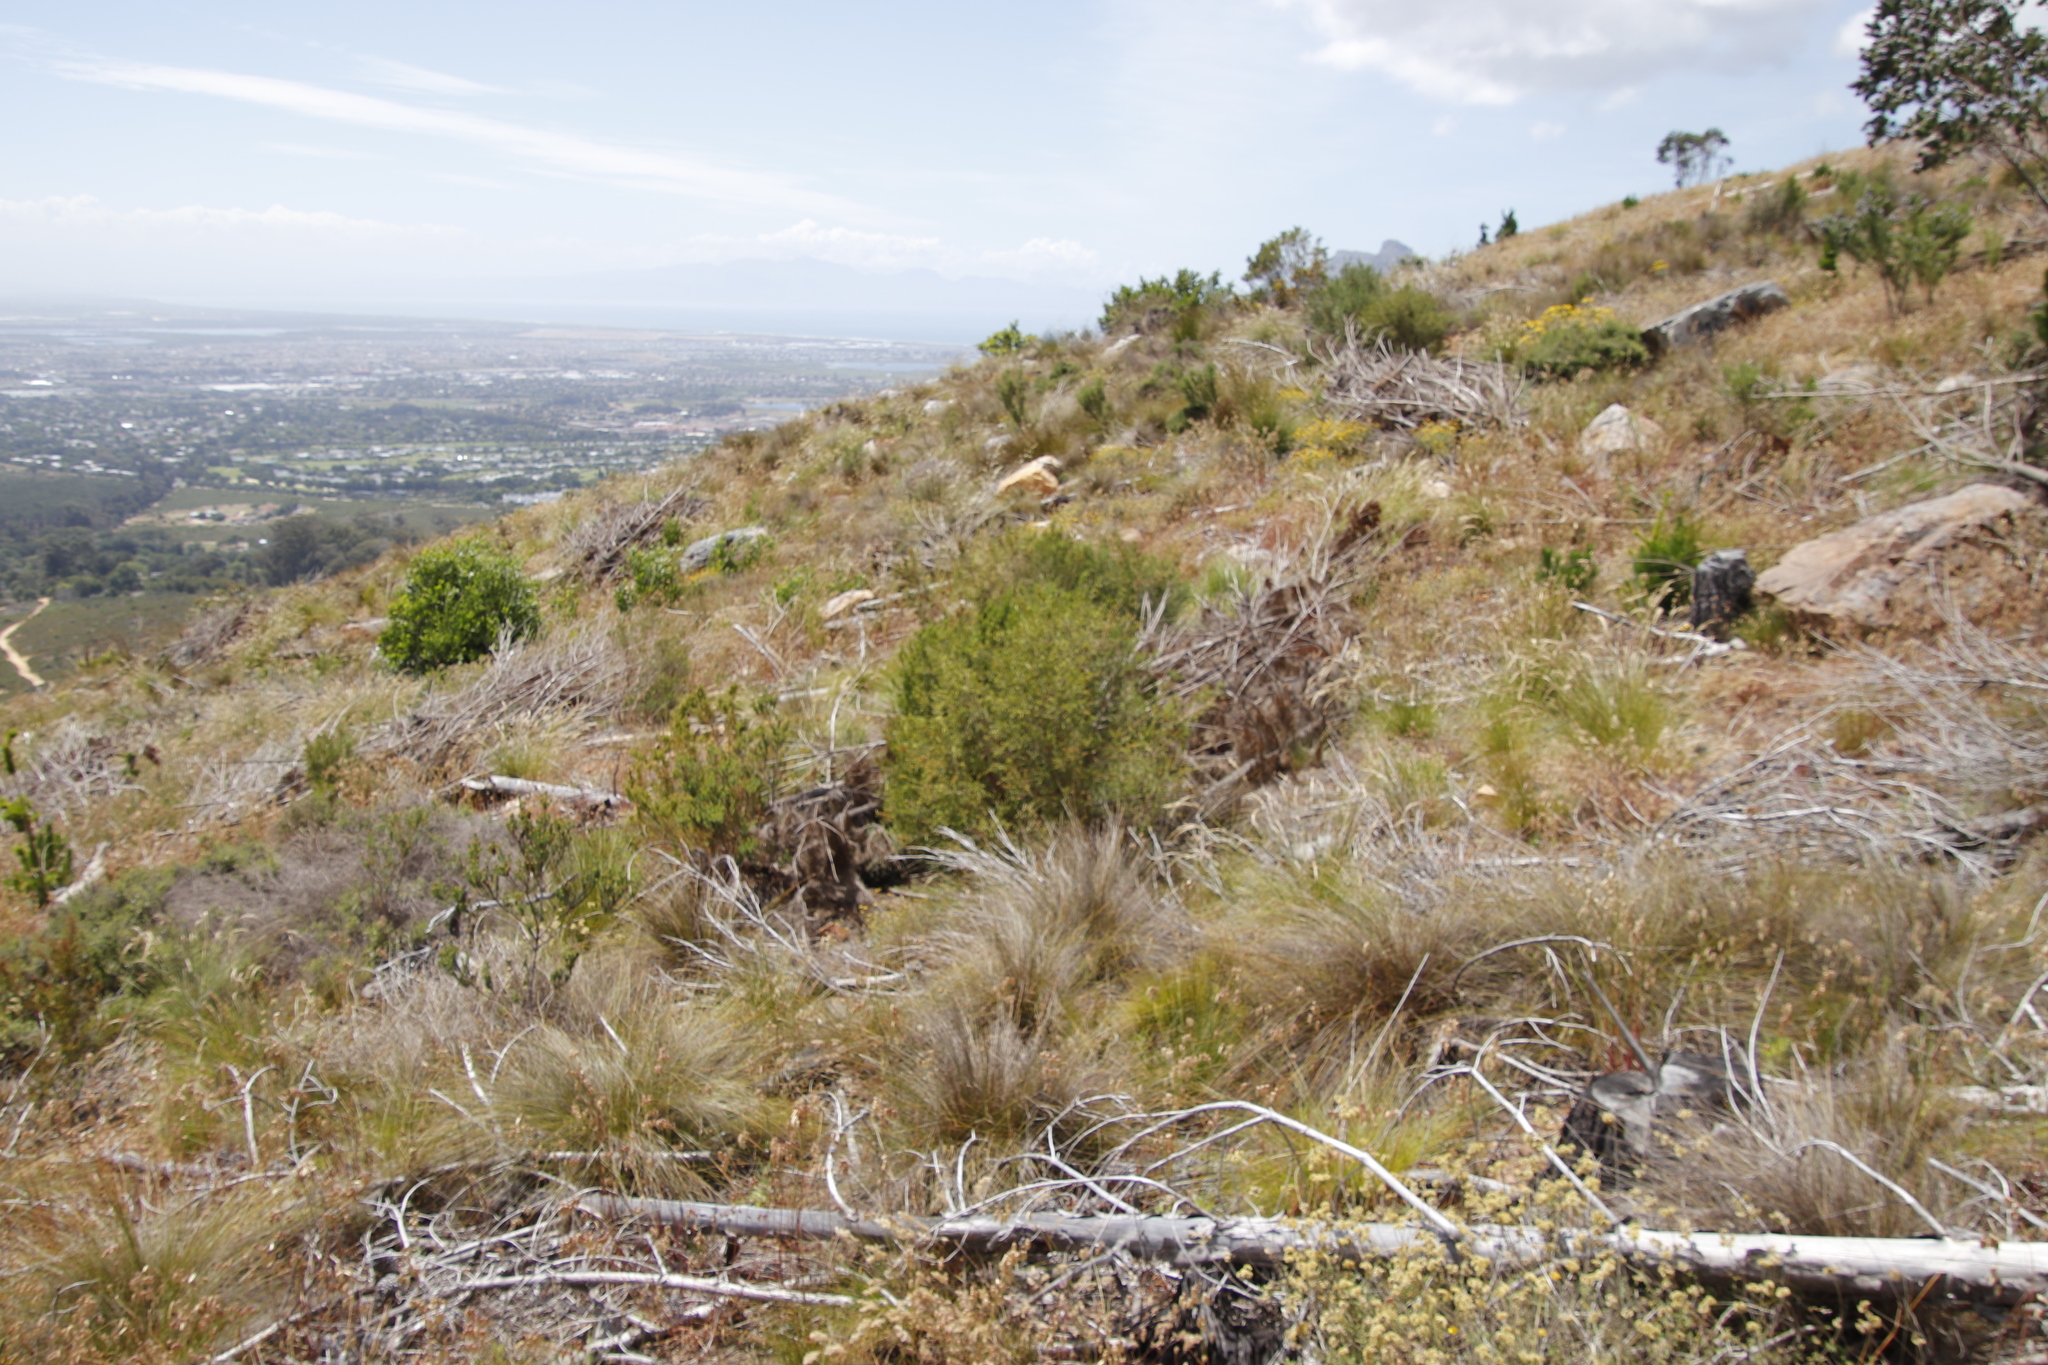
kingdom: Plantae
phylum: Tracheophyta
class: Liliopsida
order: Poales
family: Cyperaceae
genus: Ficinia
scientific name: Ficinia oligantha
